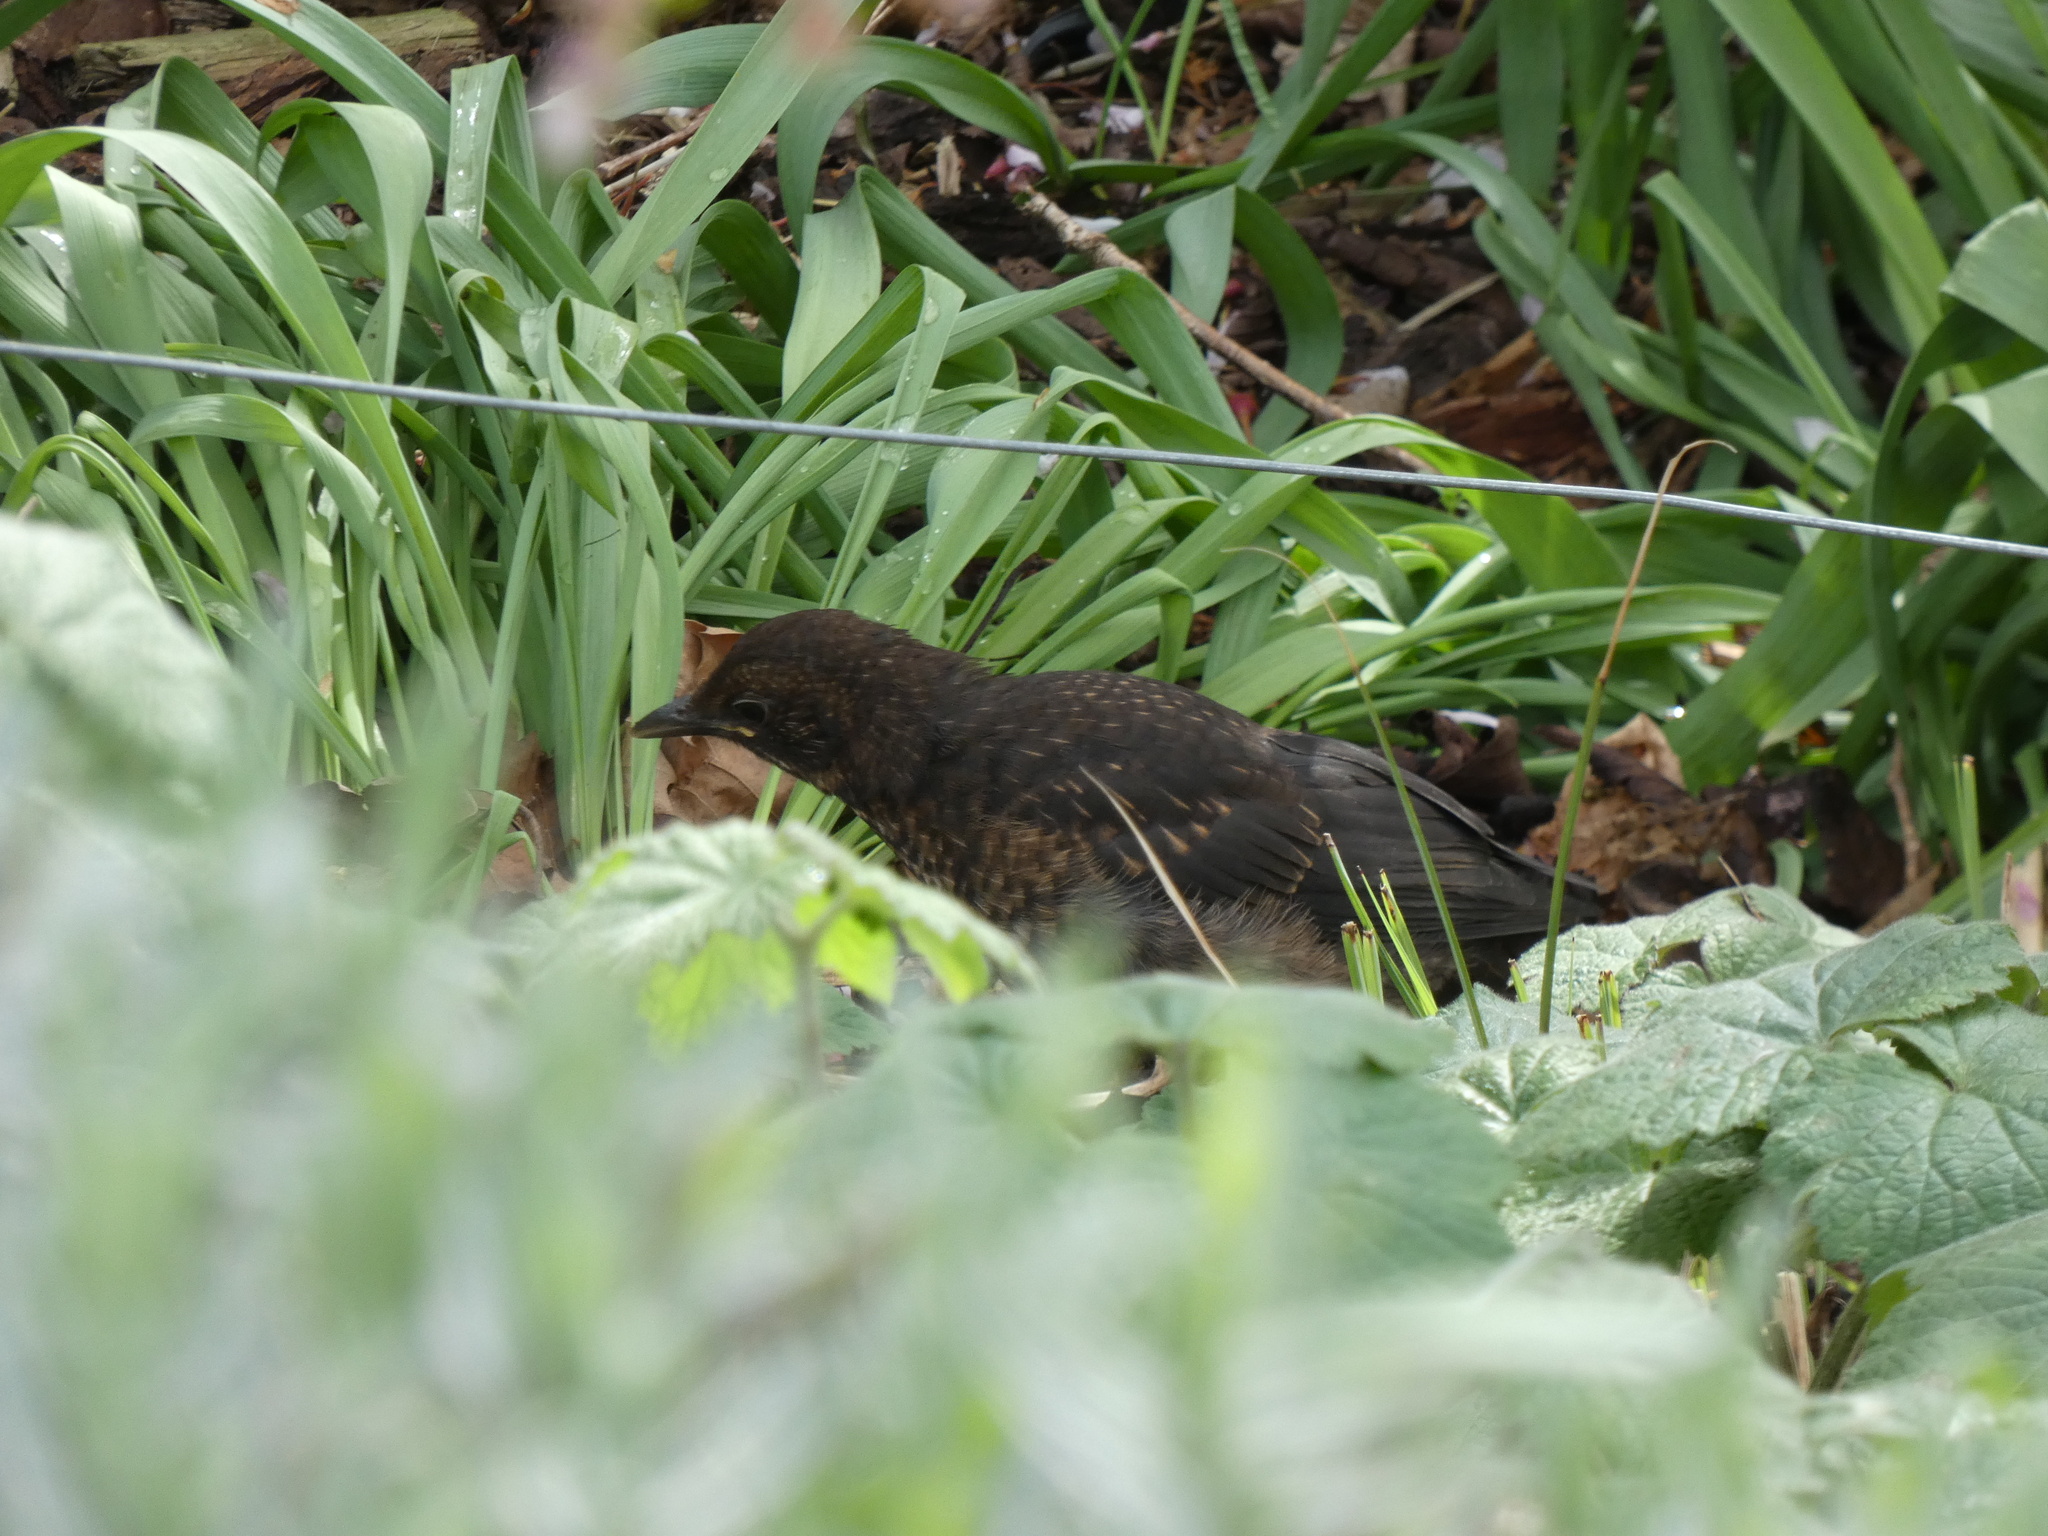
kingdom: Animalia
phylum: Chordata
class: Aves
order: Passeriformes
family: Turdidae
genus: Turdus
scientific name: Turdus merula
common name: Common blackbird
